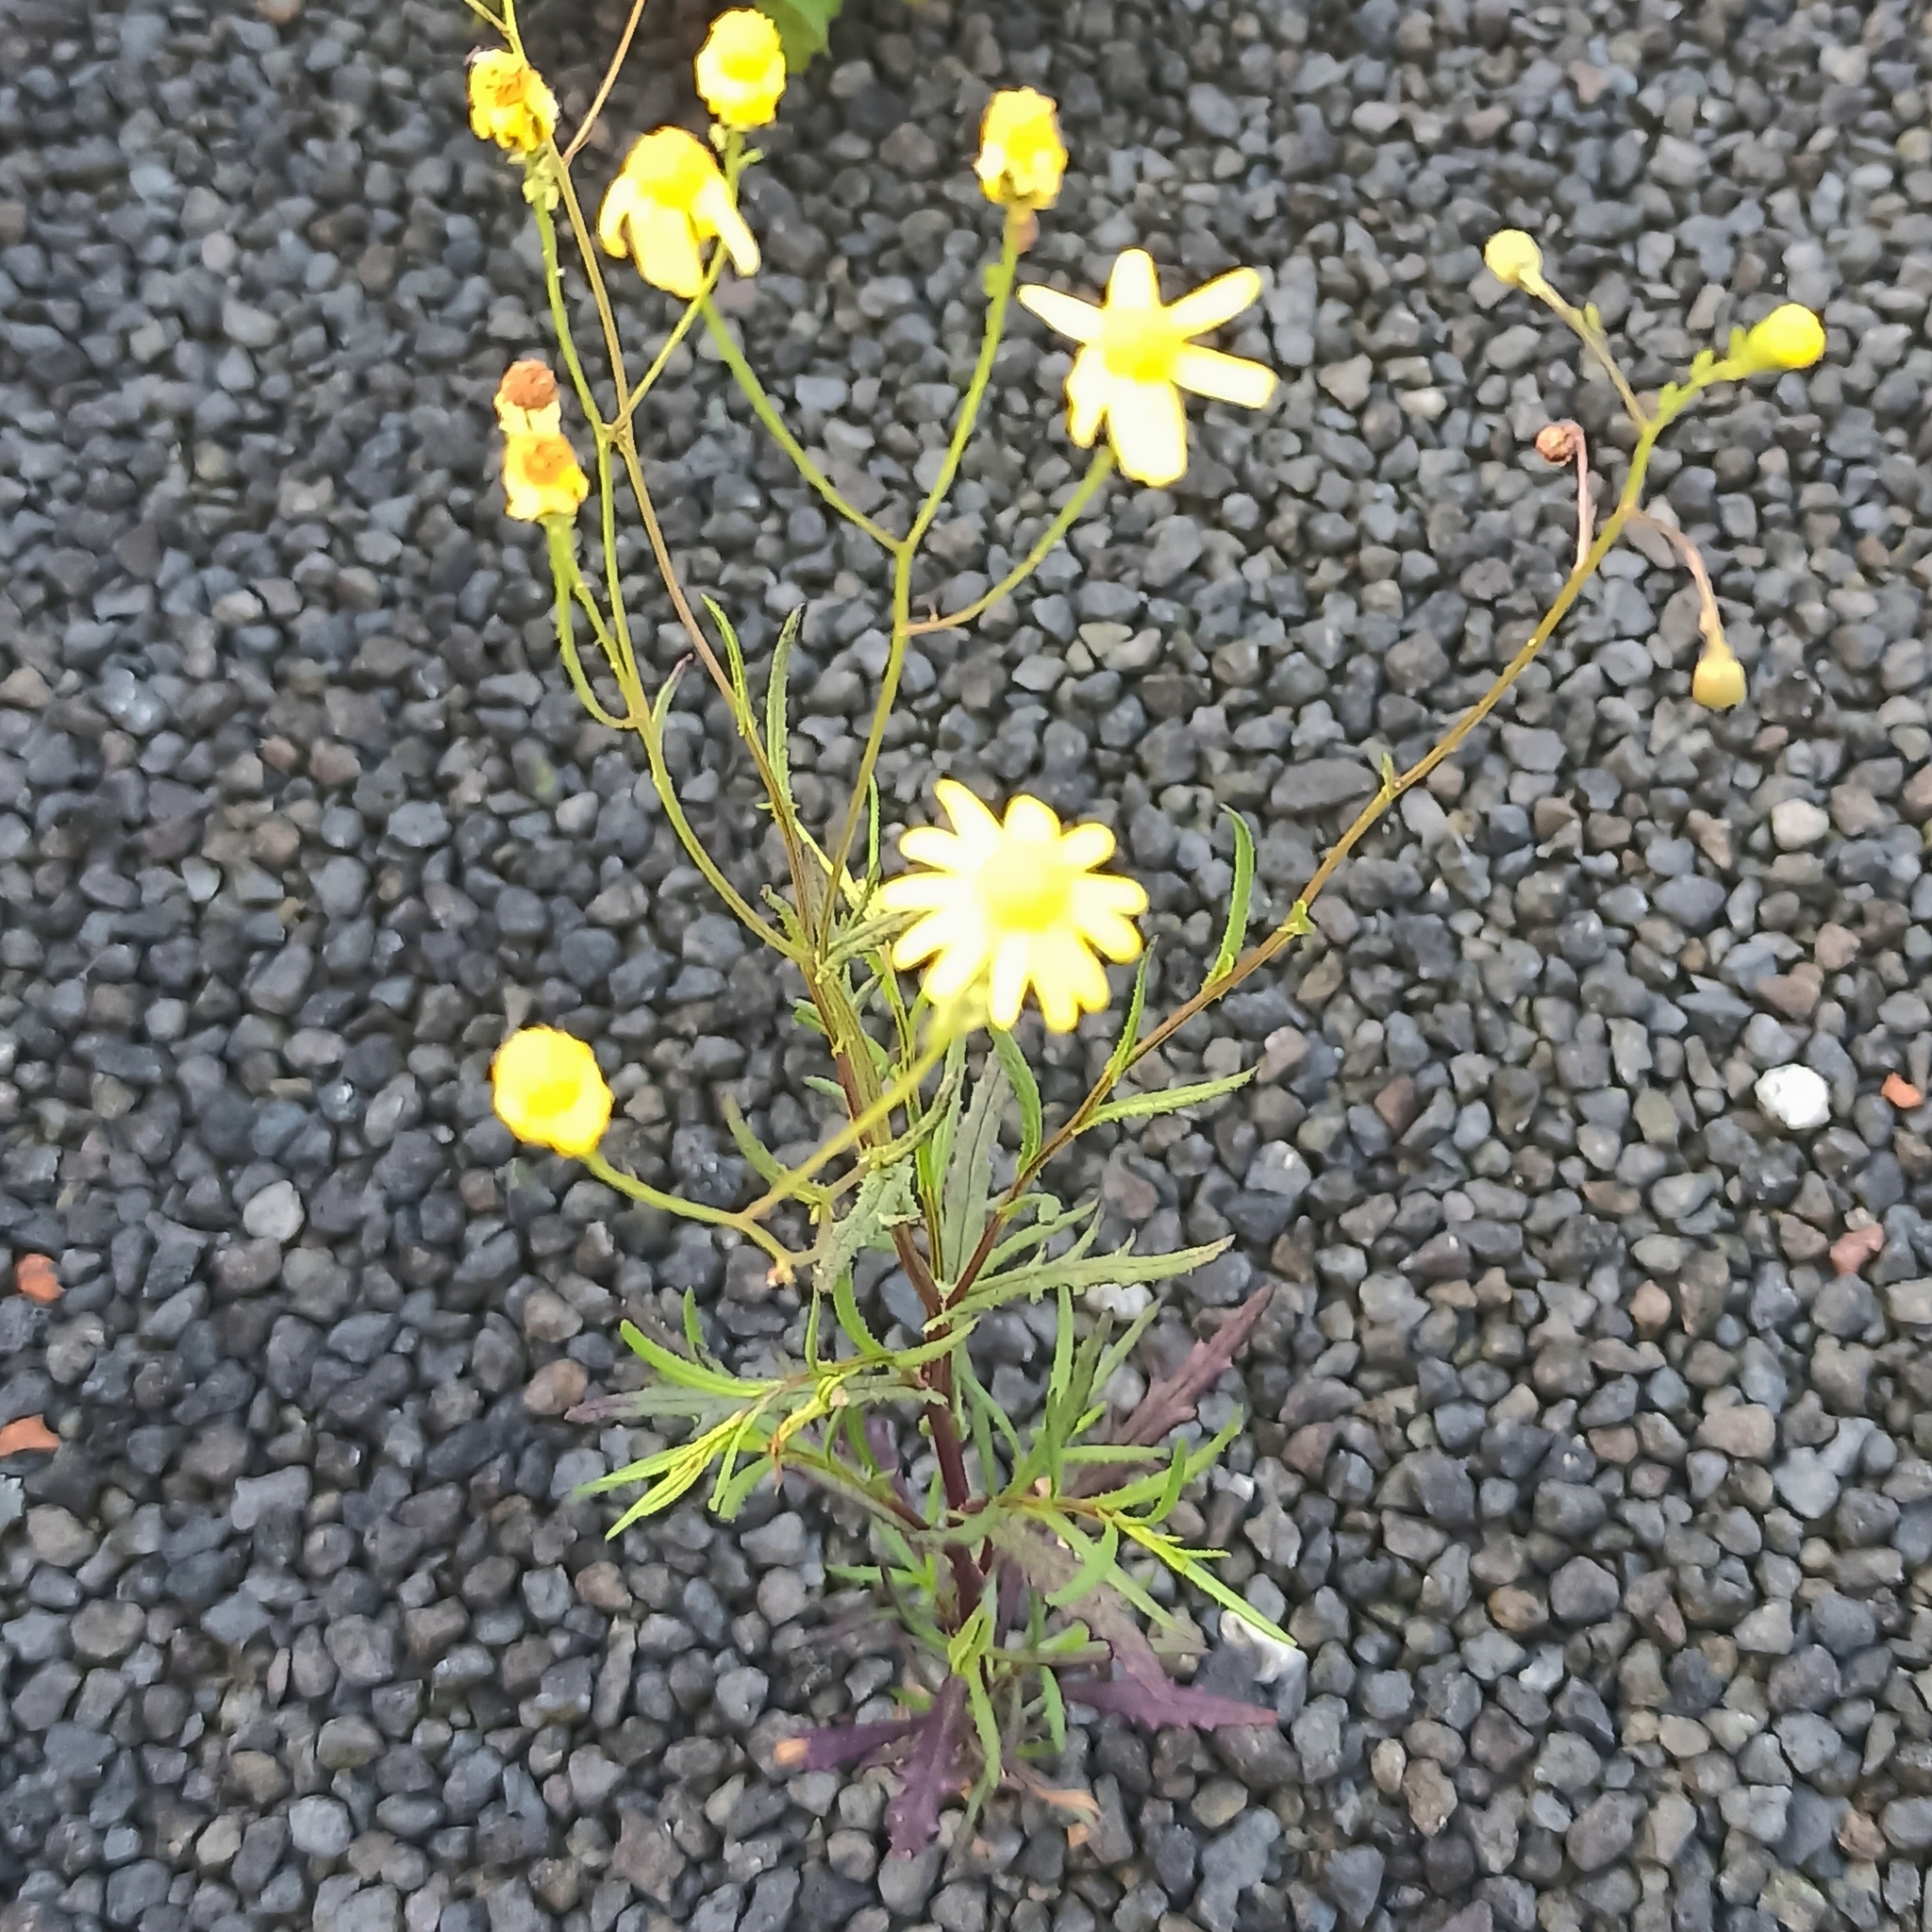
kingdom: Plantae
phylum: Tracheophyta
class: Magnoliopsida
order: Asterales
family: Asteraceae
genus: Senecio
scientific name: Senecio inaequidens
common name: Narrow-leaved ragwort
